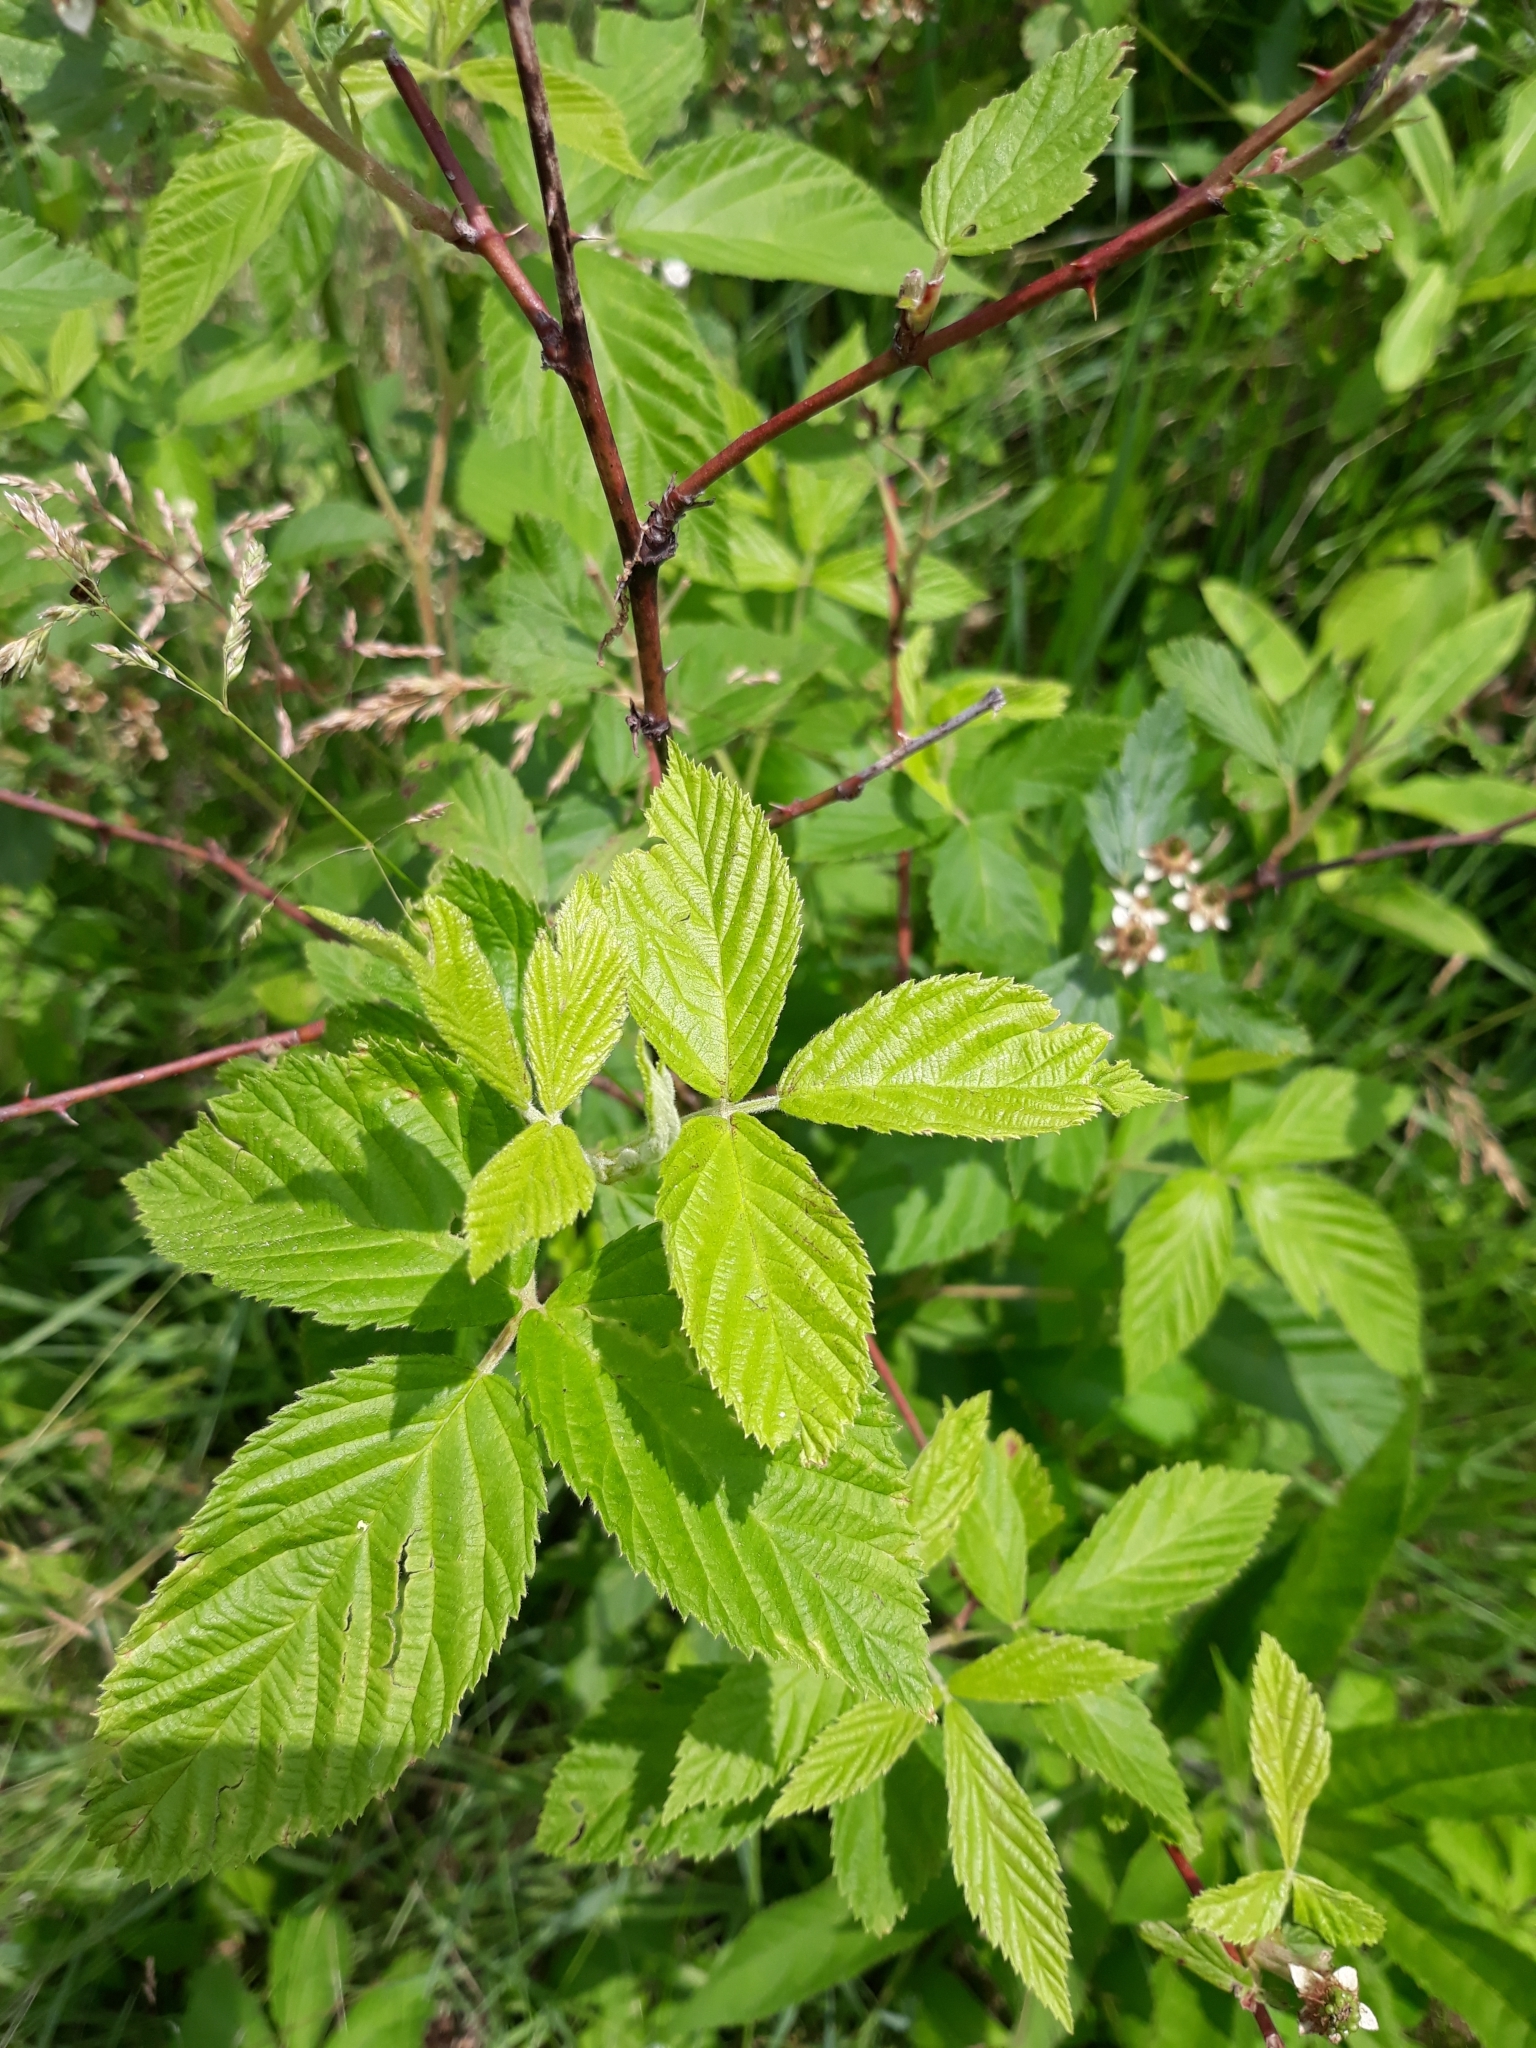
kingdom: Plantae
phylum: Tracheophyta
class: Magnoliopsida
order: Rosales
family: Rosaceae
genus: Rubus
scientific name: Rubus allegheniensis
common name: Allegheny blackberry
